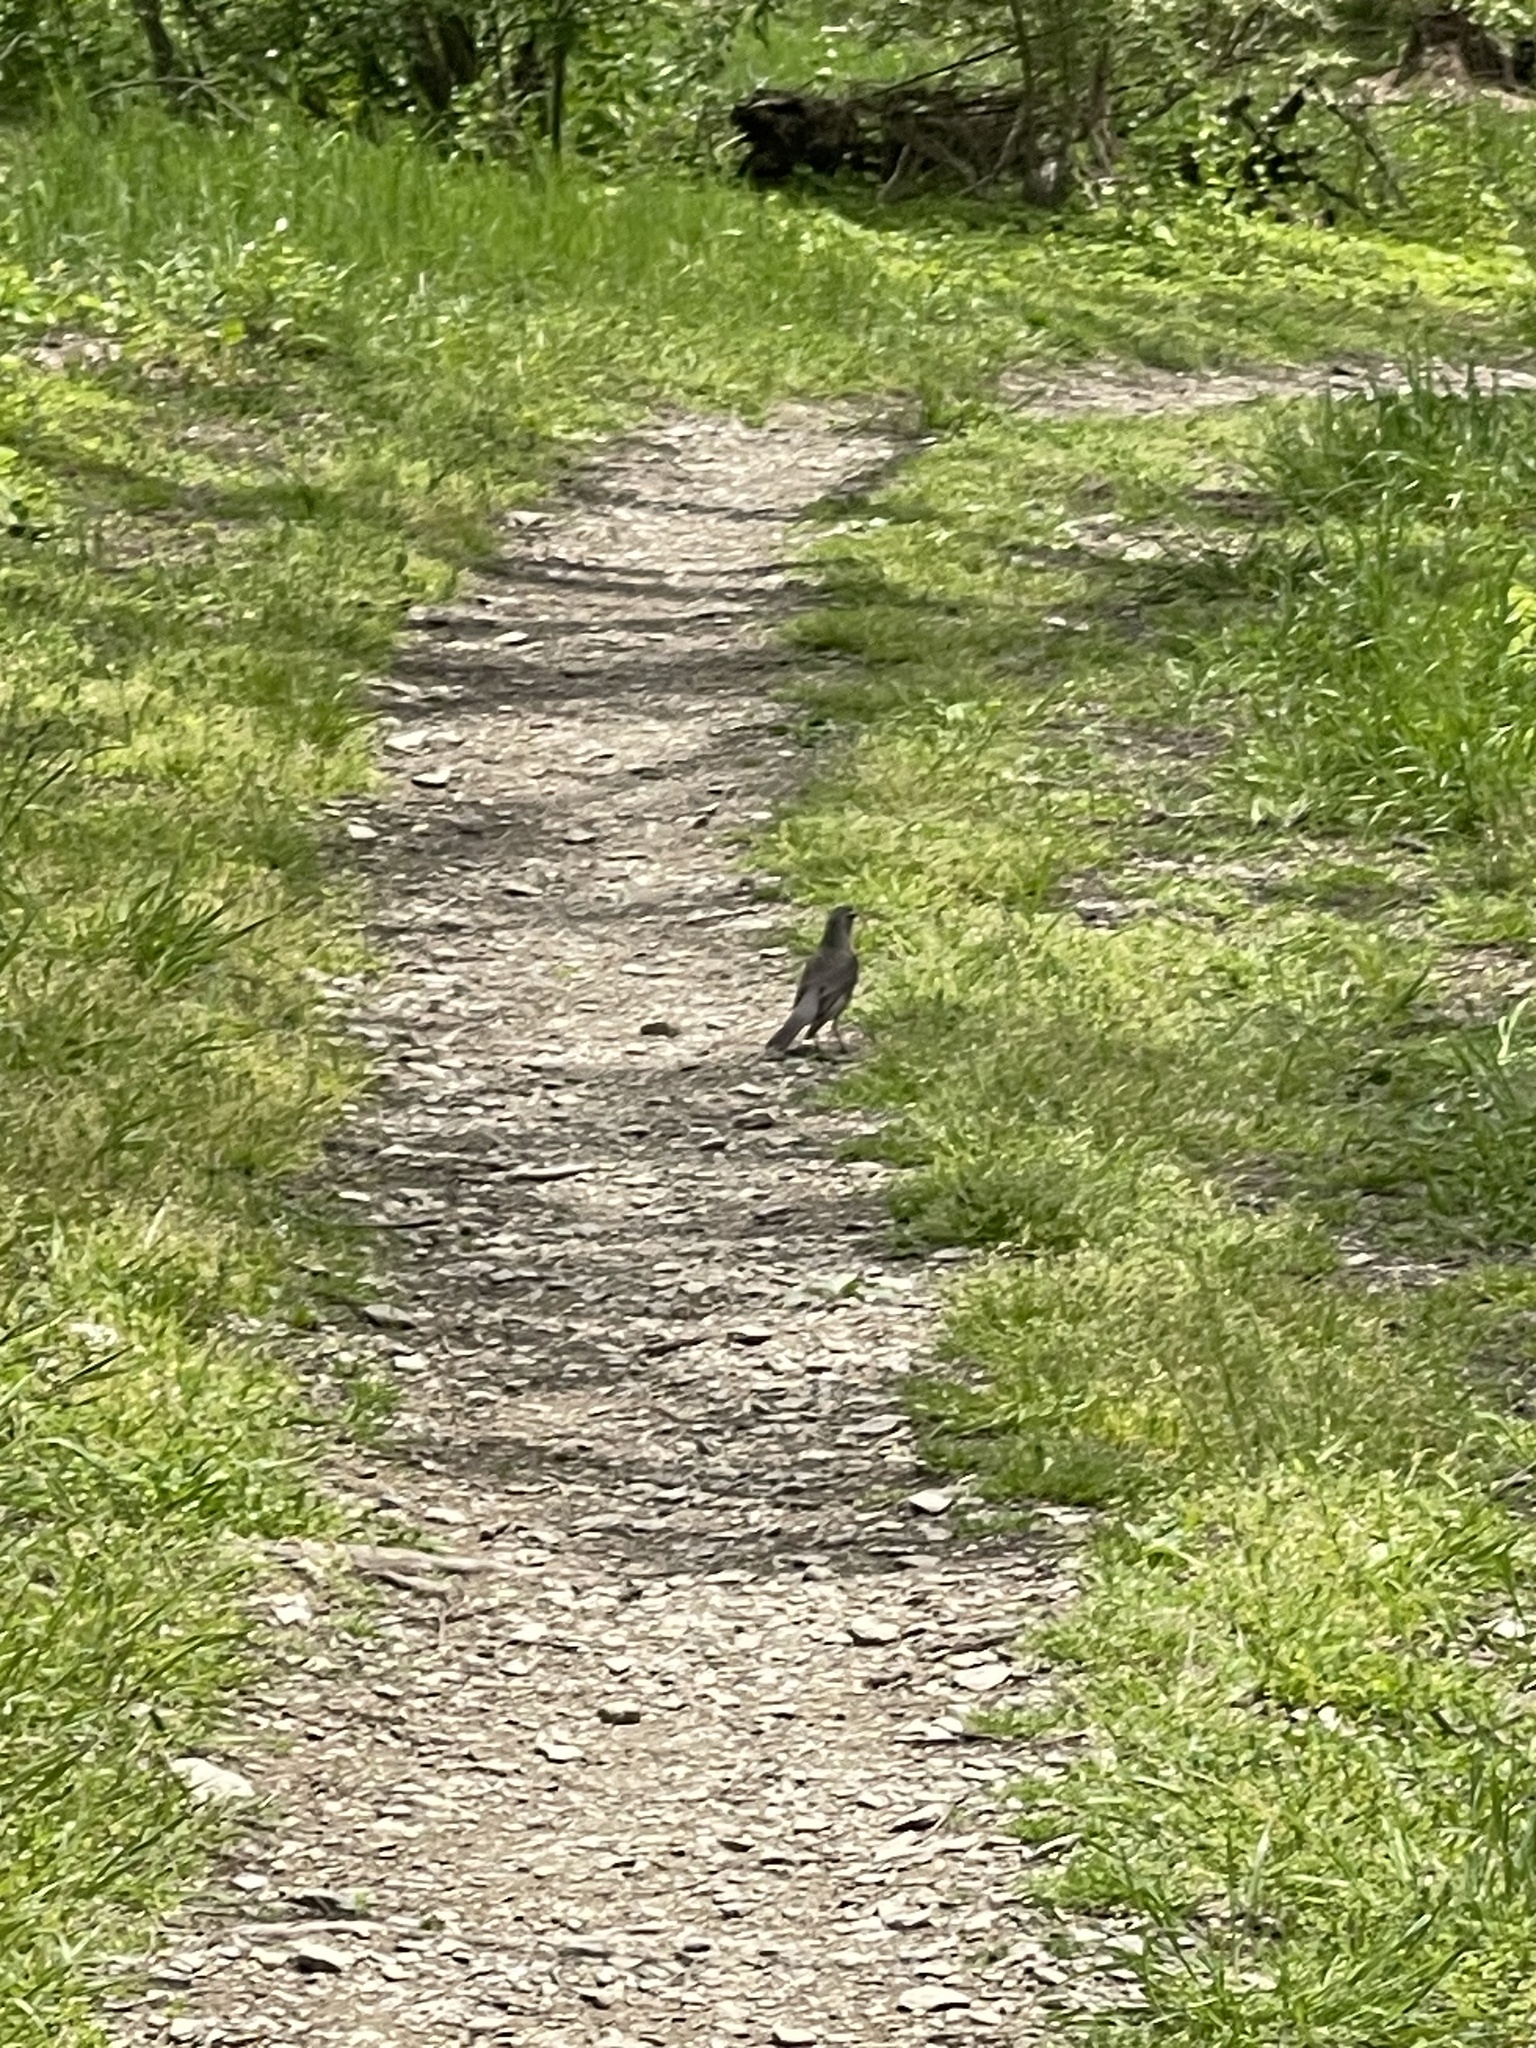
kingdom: Animalia
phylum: Chordata
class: Aves
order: Passeriformes
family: Turdidae
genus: Turdus
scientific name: Turdus migratorius
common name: American robin
